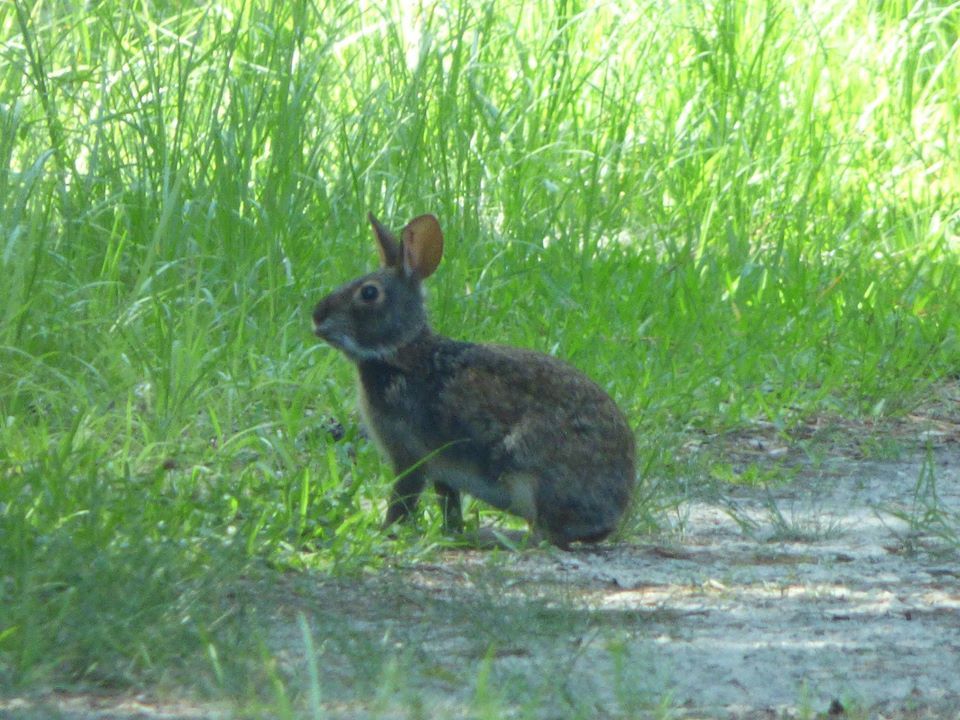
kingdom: Animalia
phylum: Chordata
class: Mammalia
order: Lagomorpha
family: Leporidae
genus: Sylvilagus
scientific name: Sylvilagus palustris
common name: Marsh rabbit
